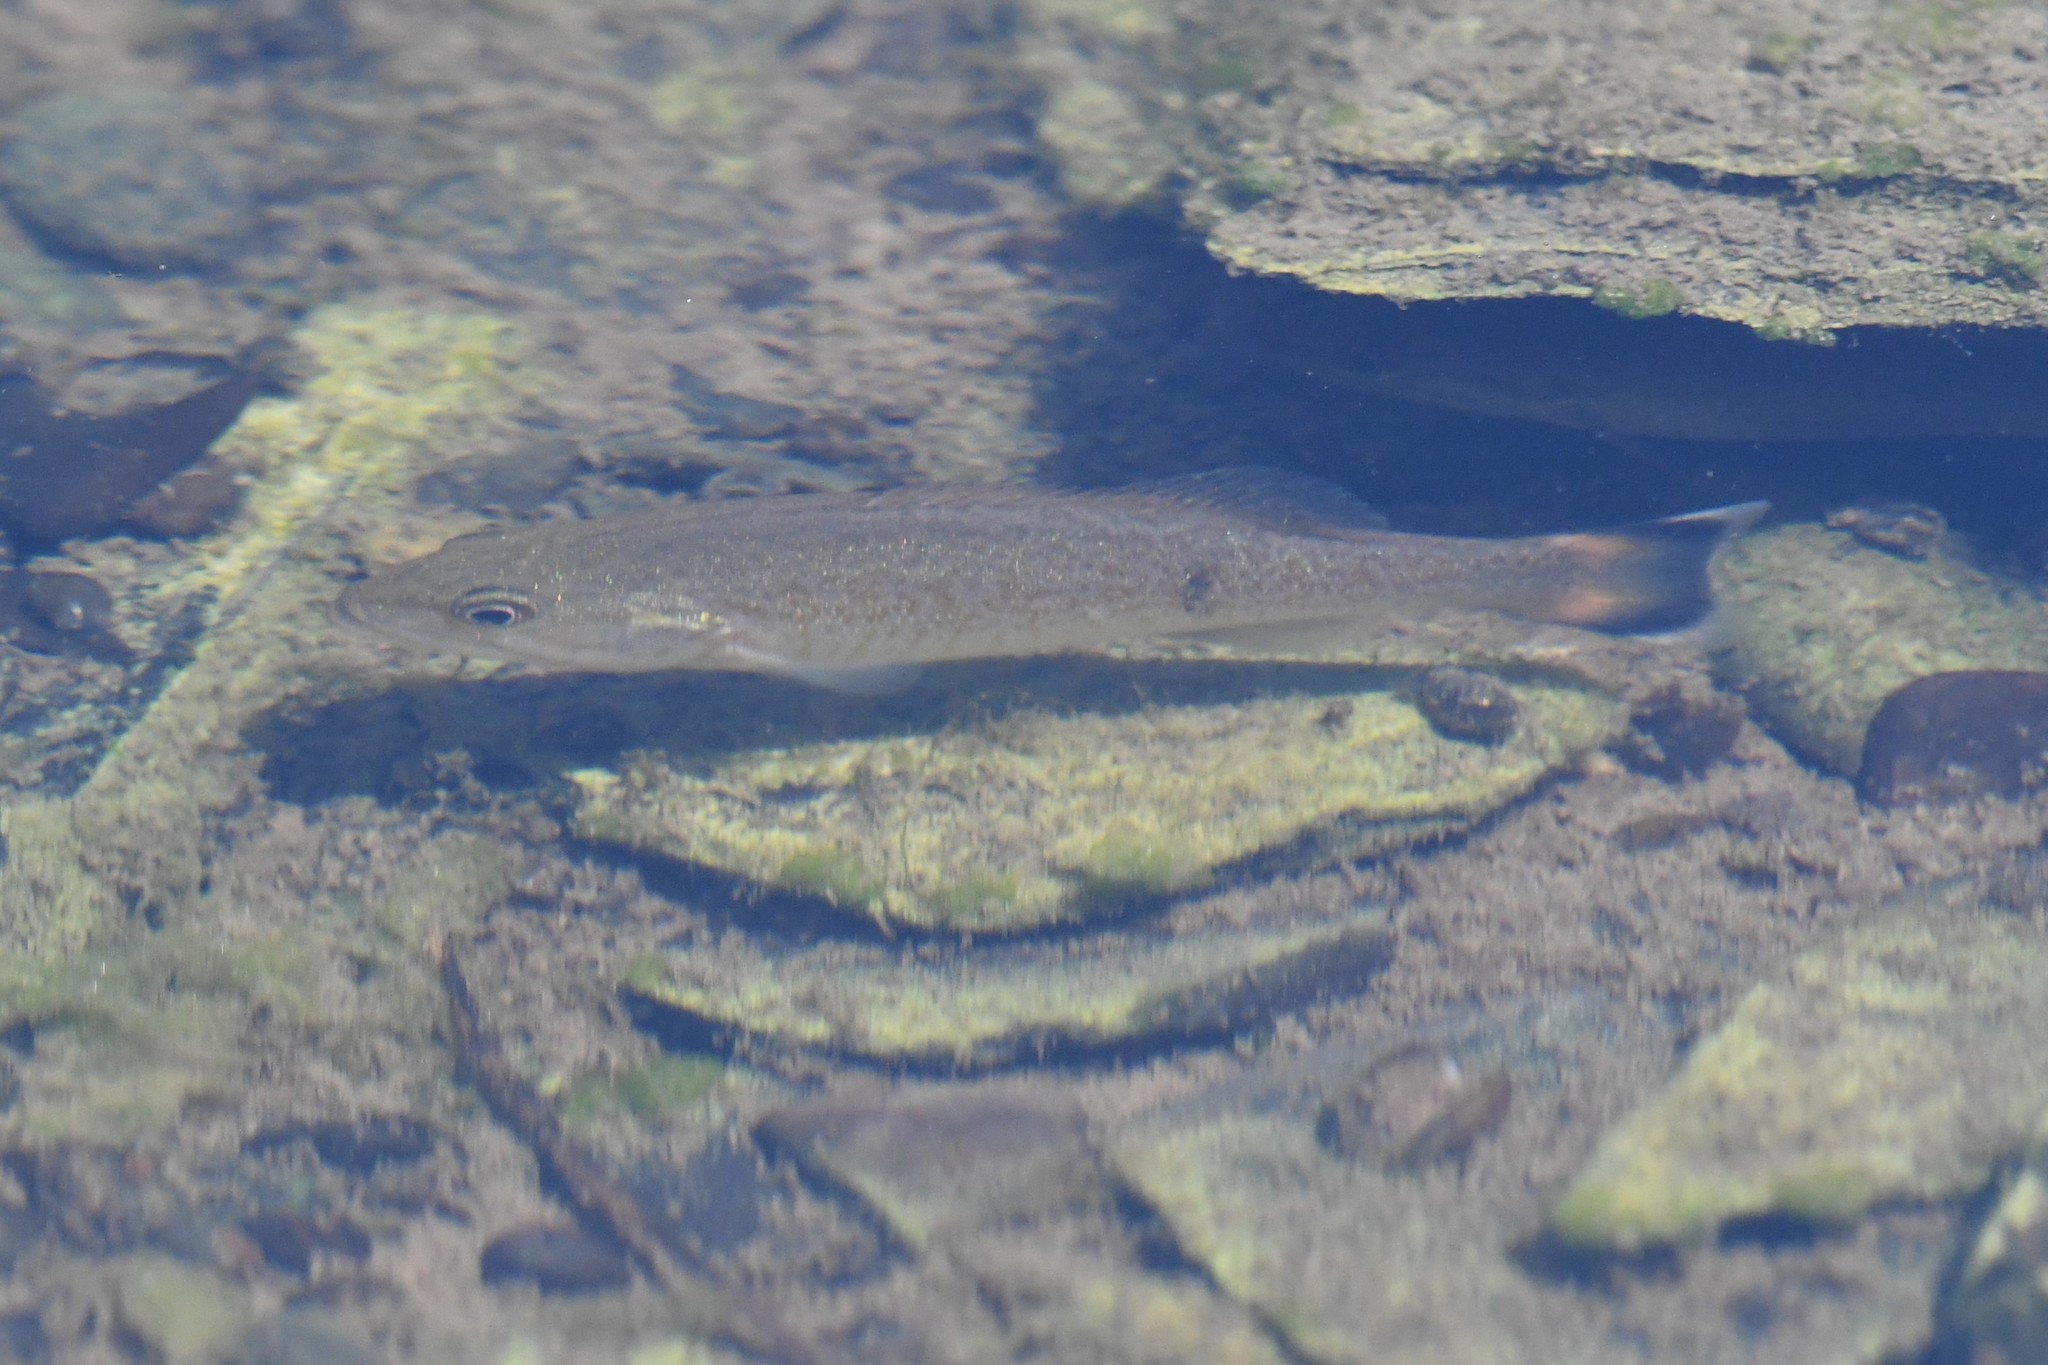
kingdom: Animalia
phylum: Chordata
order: Perciformes
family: Centrarchidae
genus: Micropterus
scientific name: Micropterus dolomieu
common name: Smallmouth bass
